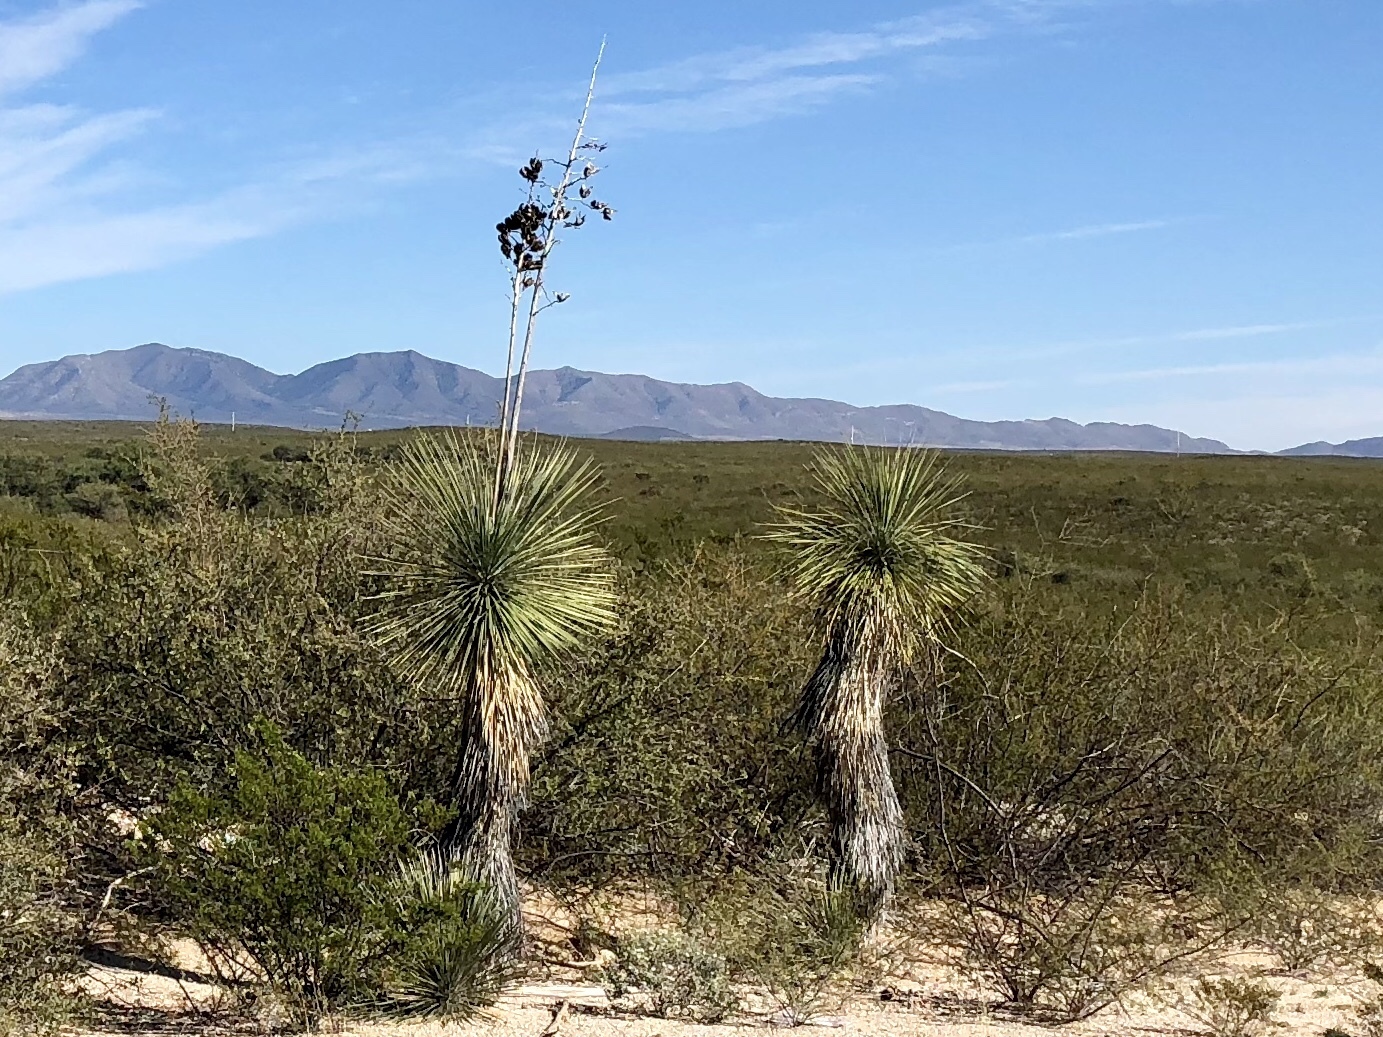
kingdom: Plantae
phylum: Tracheophyta
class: Liliopsida
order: Asparagales
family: Asparagaceae
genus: Yucca
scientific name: Yucca elata
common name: Palmella
